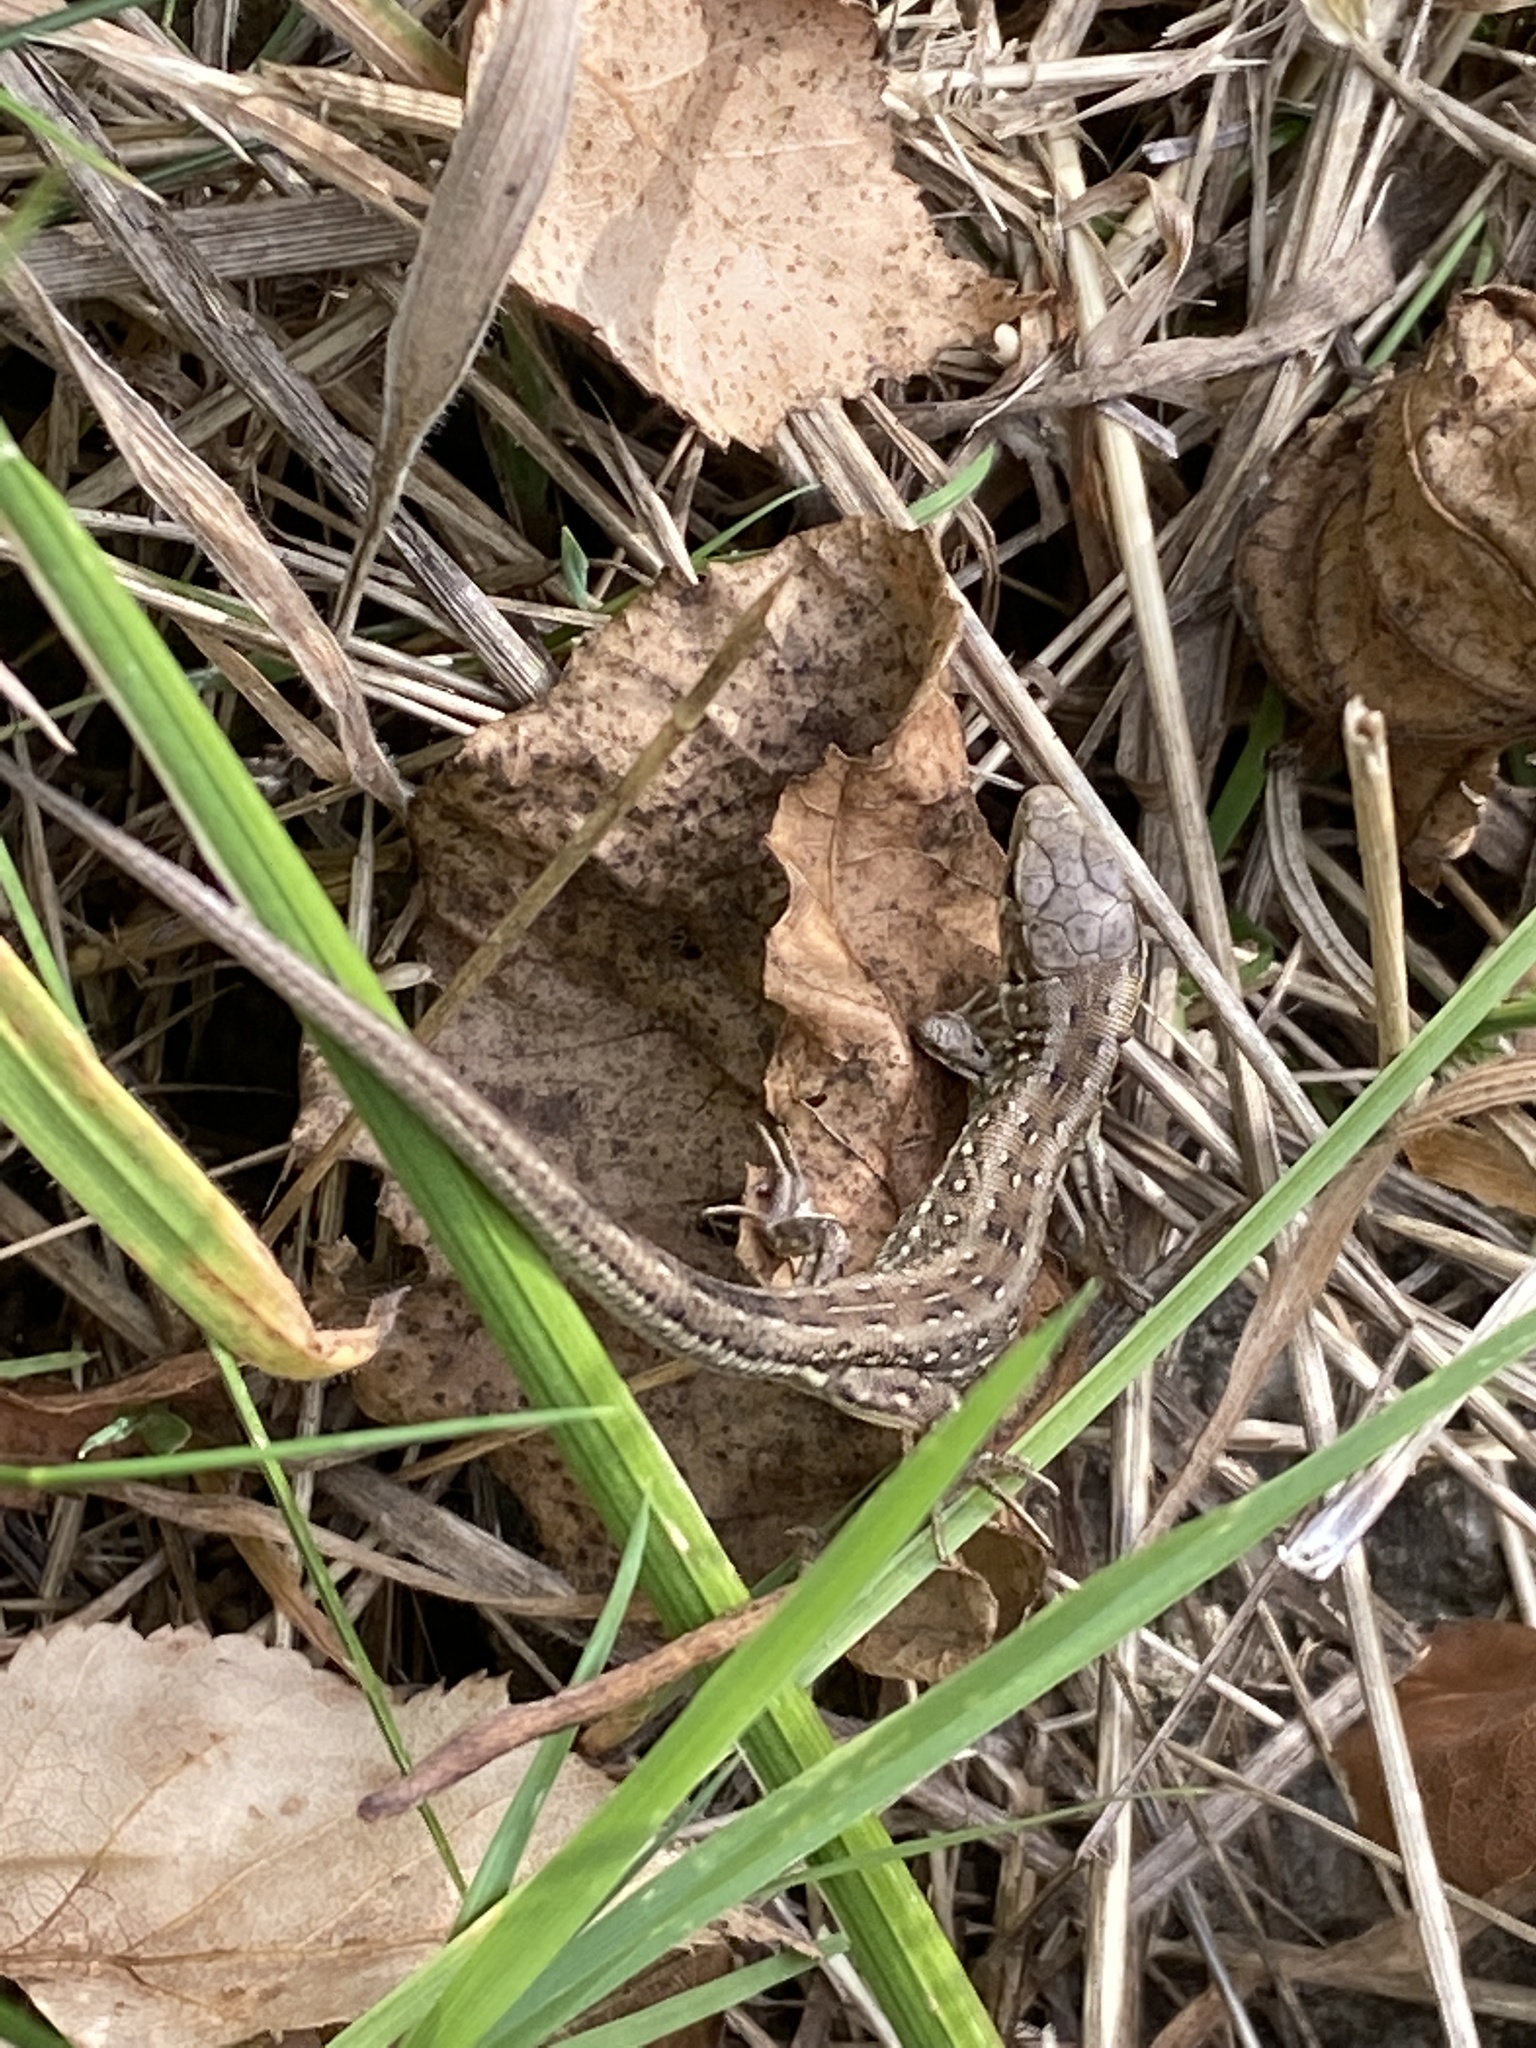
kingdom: Animalia
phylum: Chordata
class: Squamata
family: Lacertidae
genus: Lacerta
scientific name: Lacerta agilis
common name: Sand lizard
